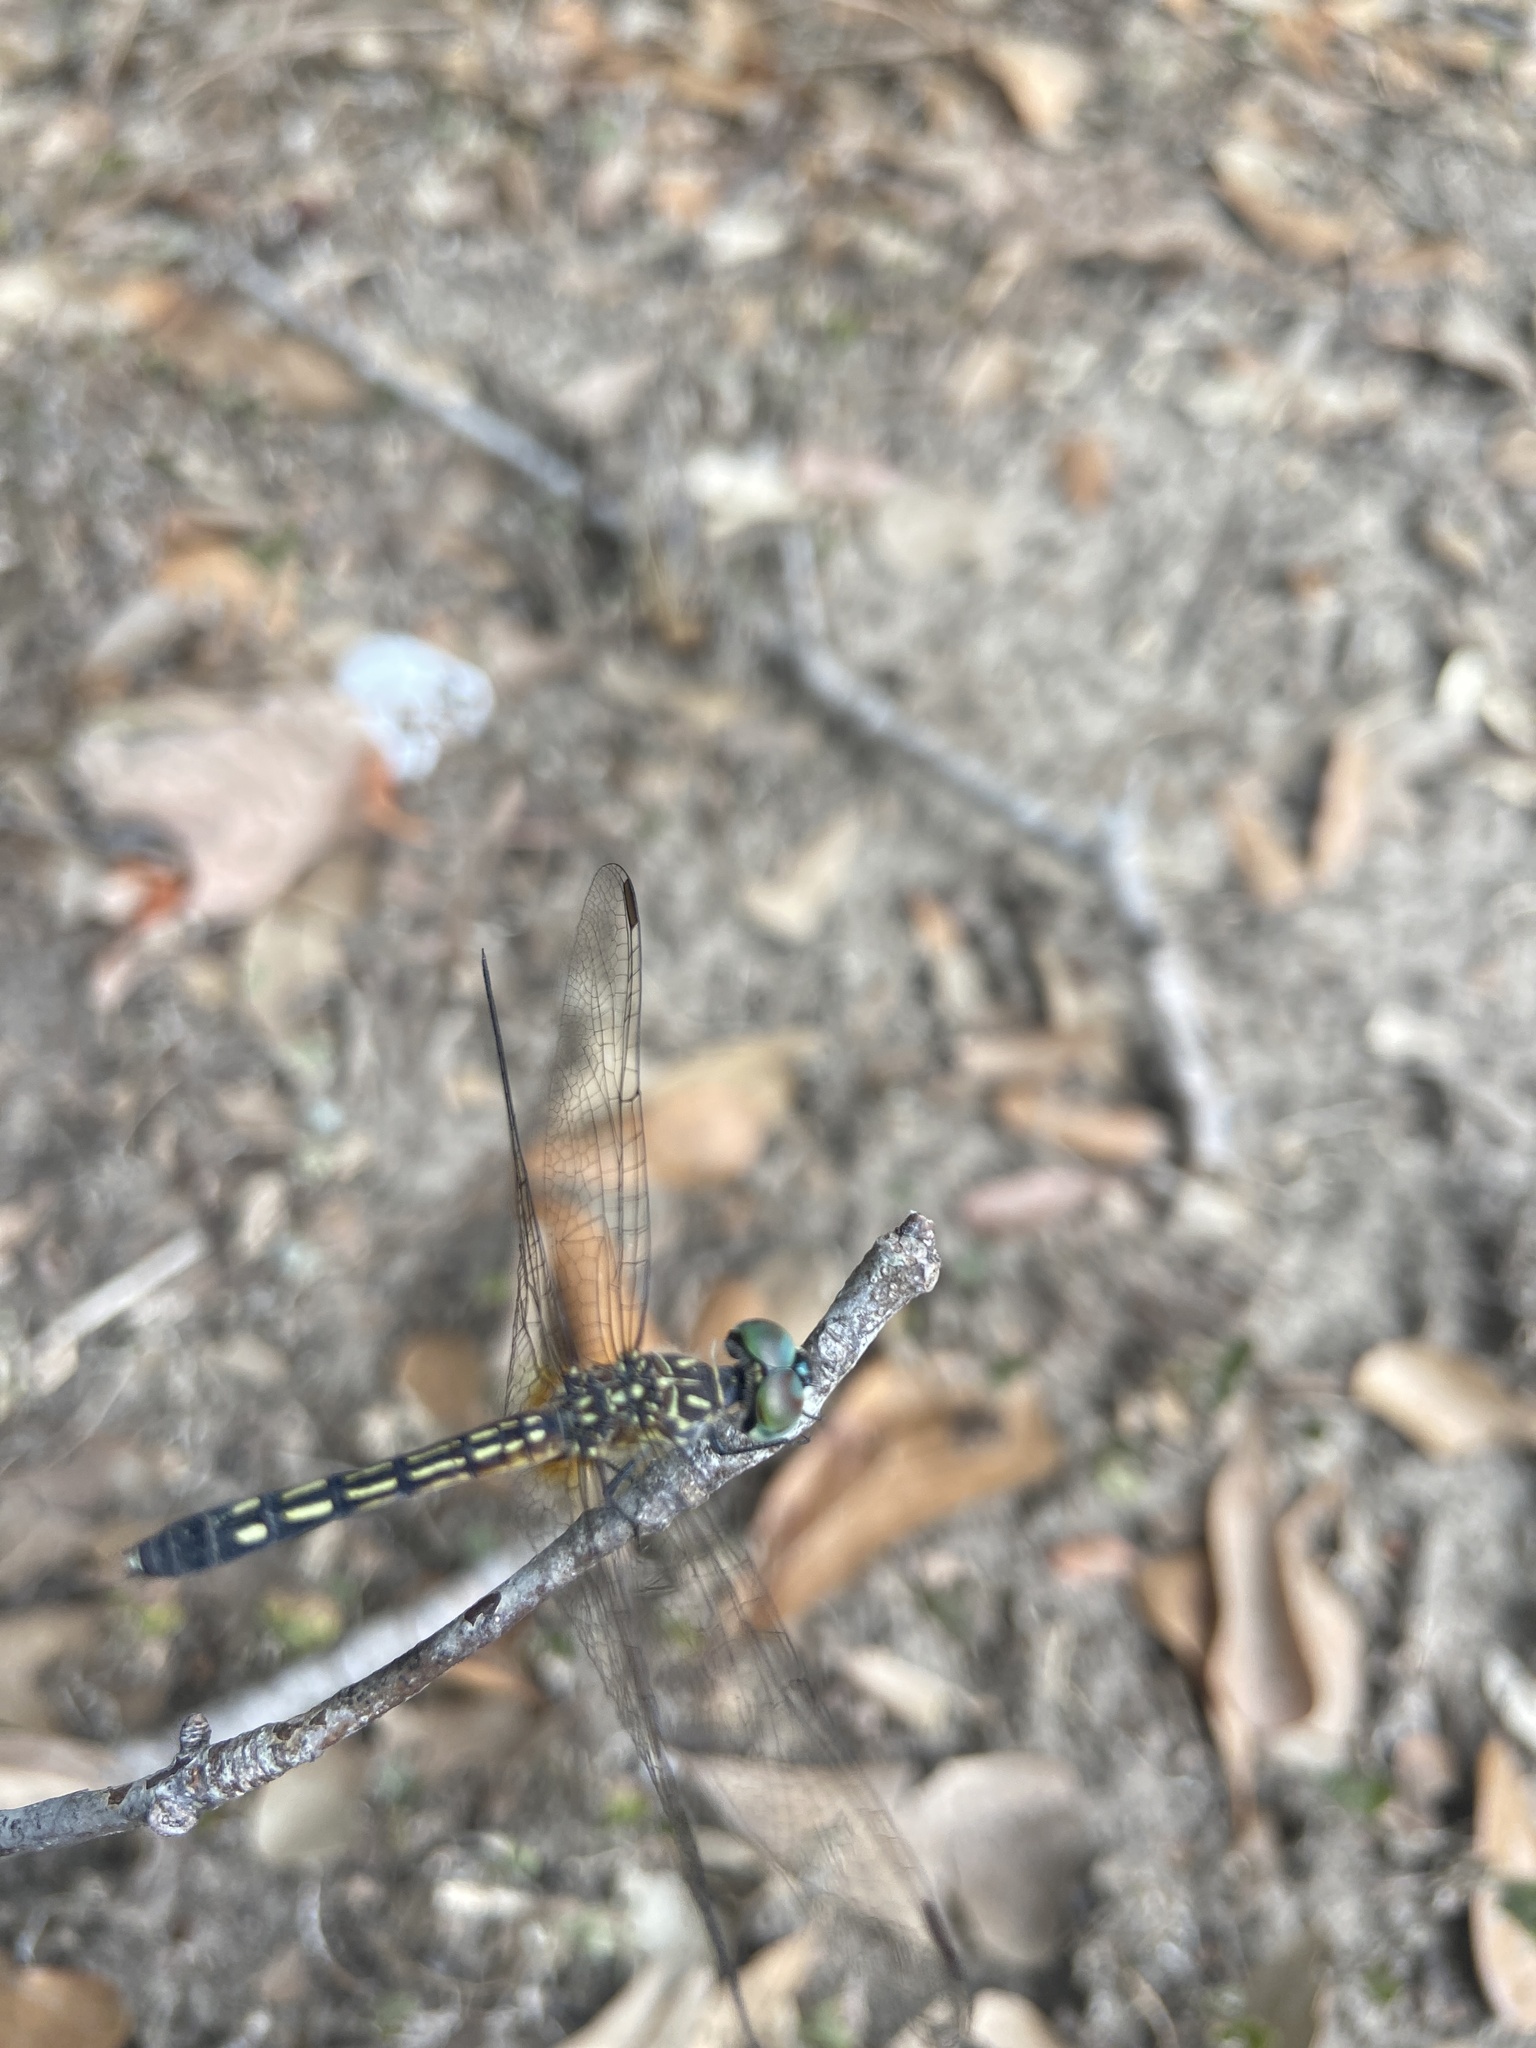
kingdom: Animalia
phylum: Arthropoda
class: Insecta
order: Odonata
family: Libellulidae
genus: Pachydiplax
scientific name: Pachydiplax longipennis
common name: Blue dasher
